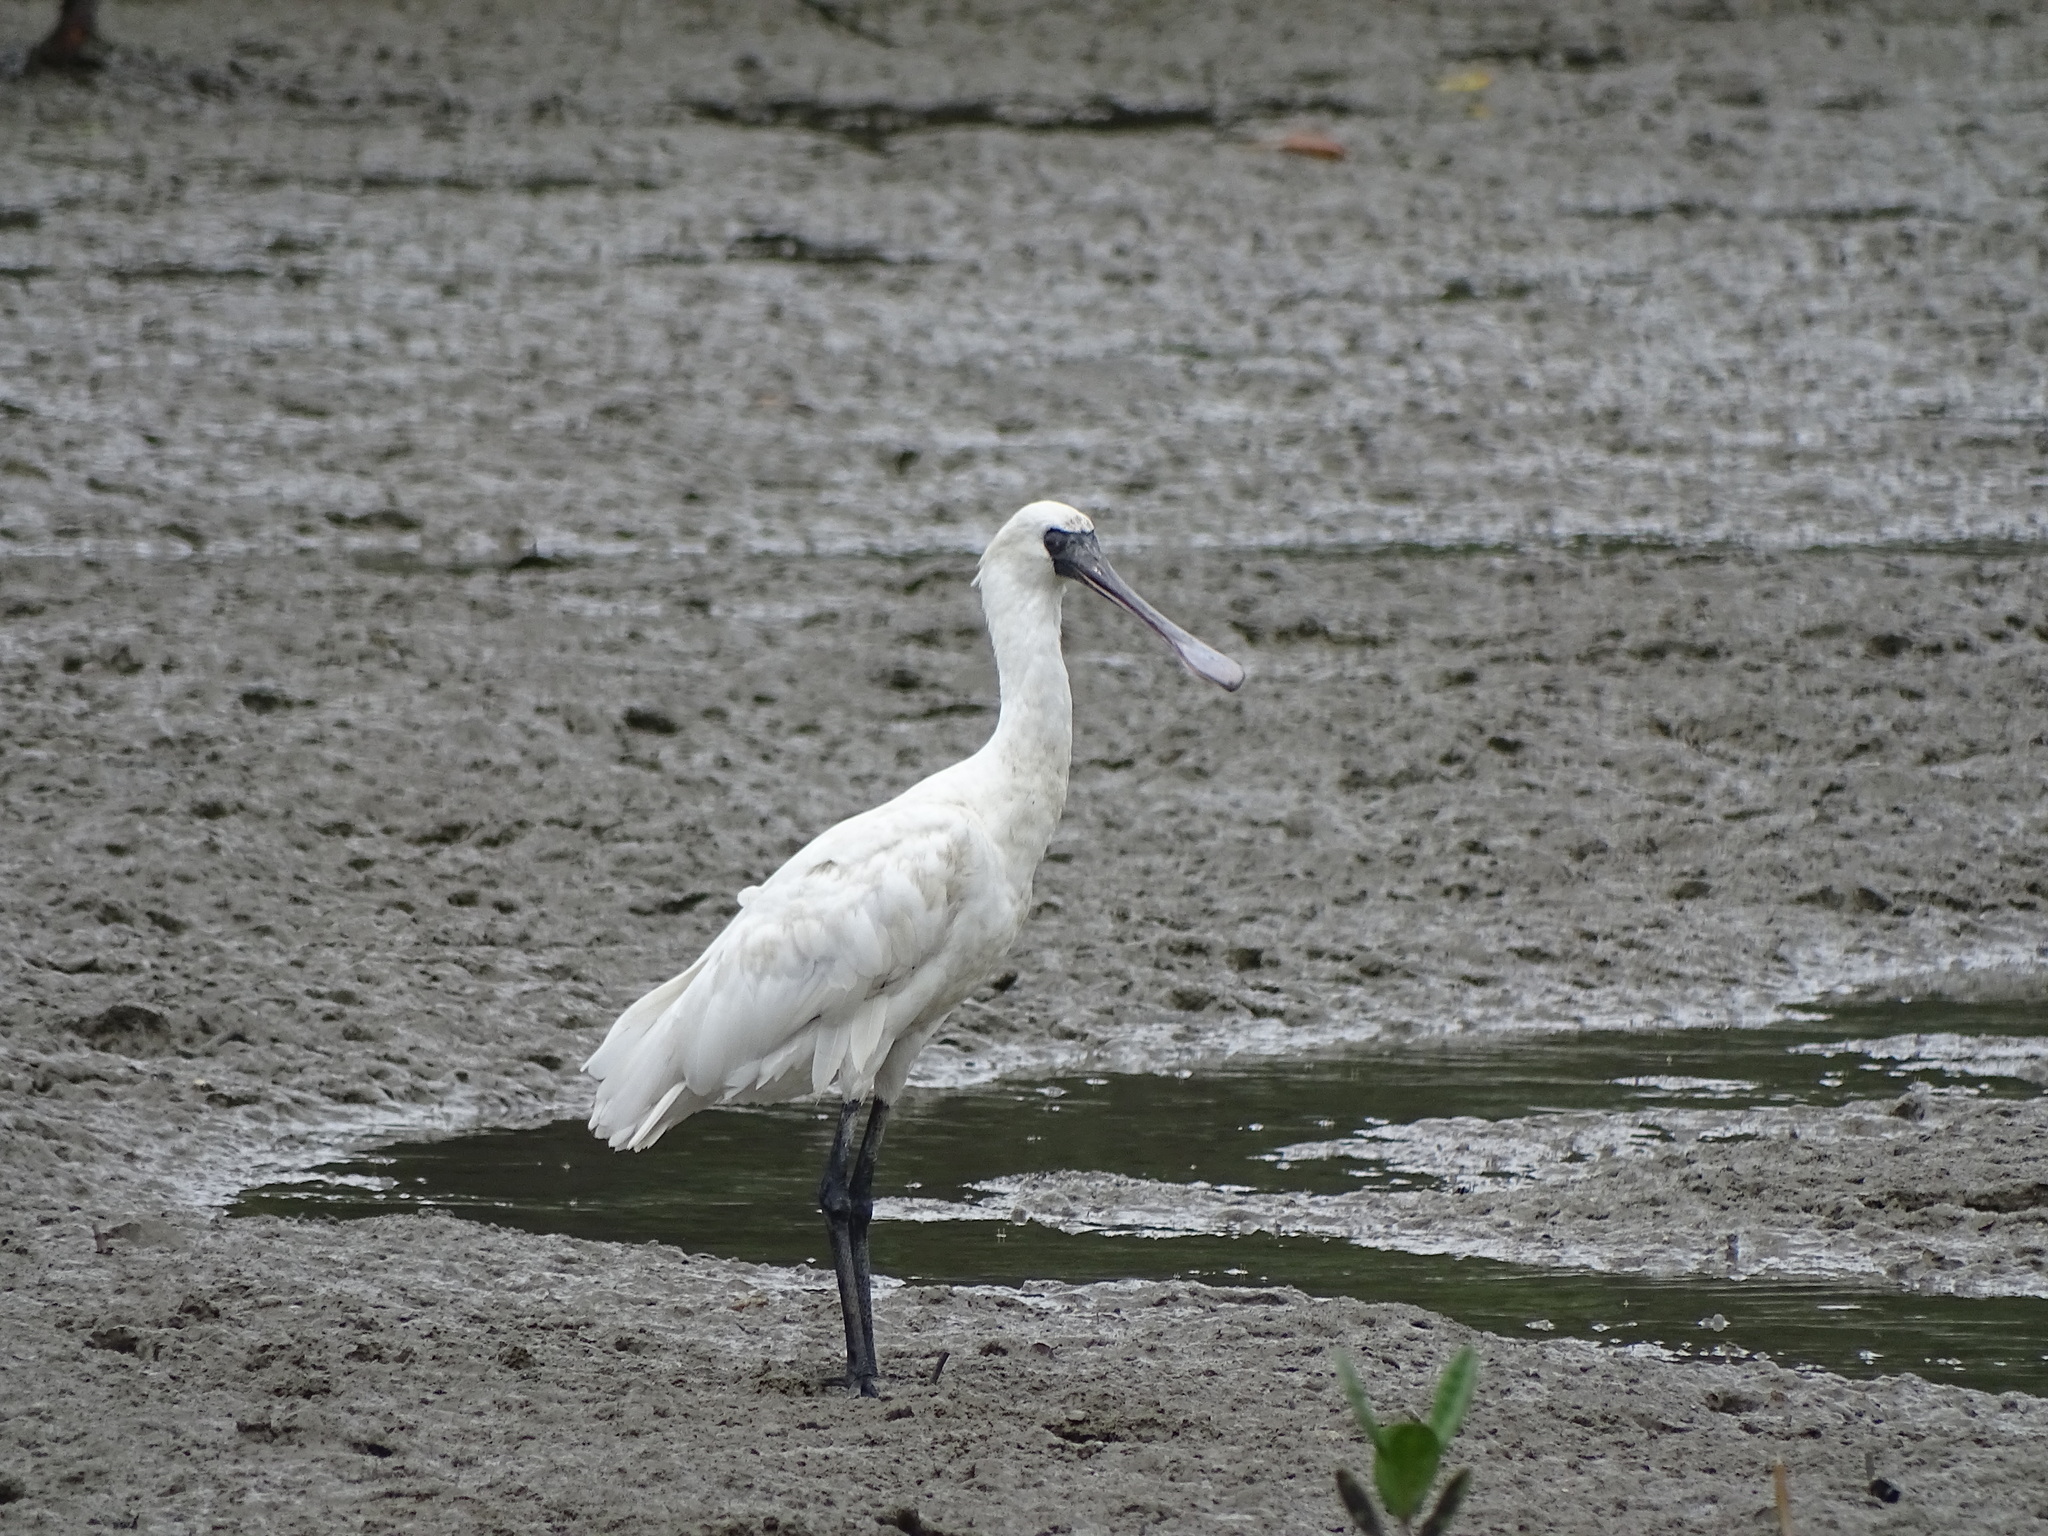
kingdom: Animalia
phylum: Chordata
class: Aves
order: Pelecaniformes
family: Threskiornithidae
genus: Platalea
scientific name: Platalea minor
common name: Black-faced spoonbill
